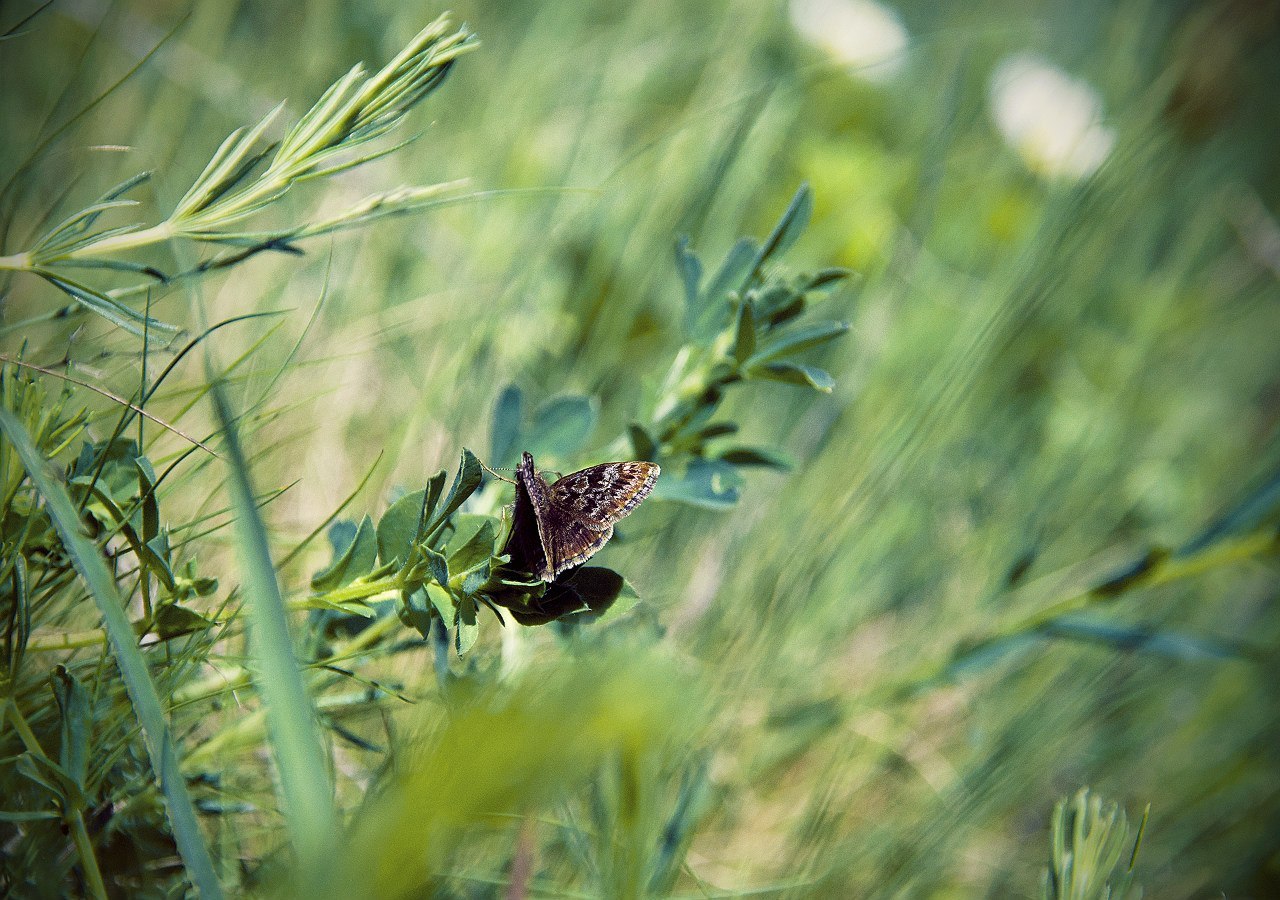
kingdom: Animalia
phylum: Arthropoda
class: Insecta
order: Lepidoptera
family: Hesperiidae
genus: Erynnis
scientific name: Erynnis tages
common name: Dingy skipper
